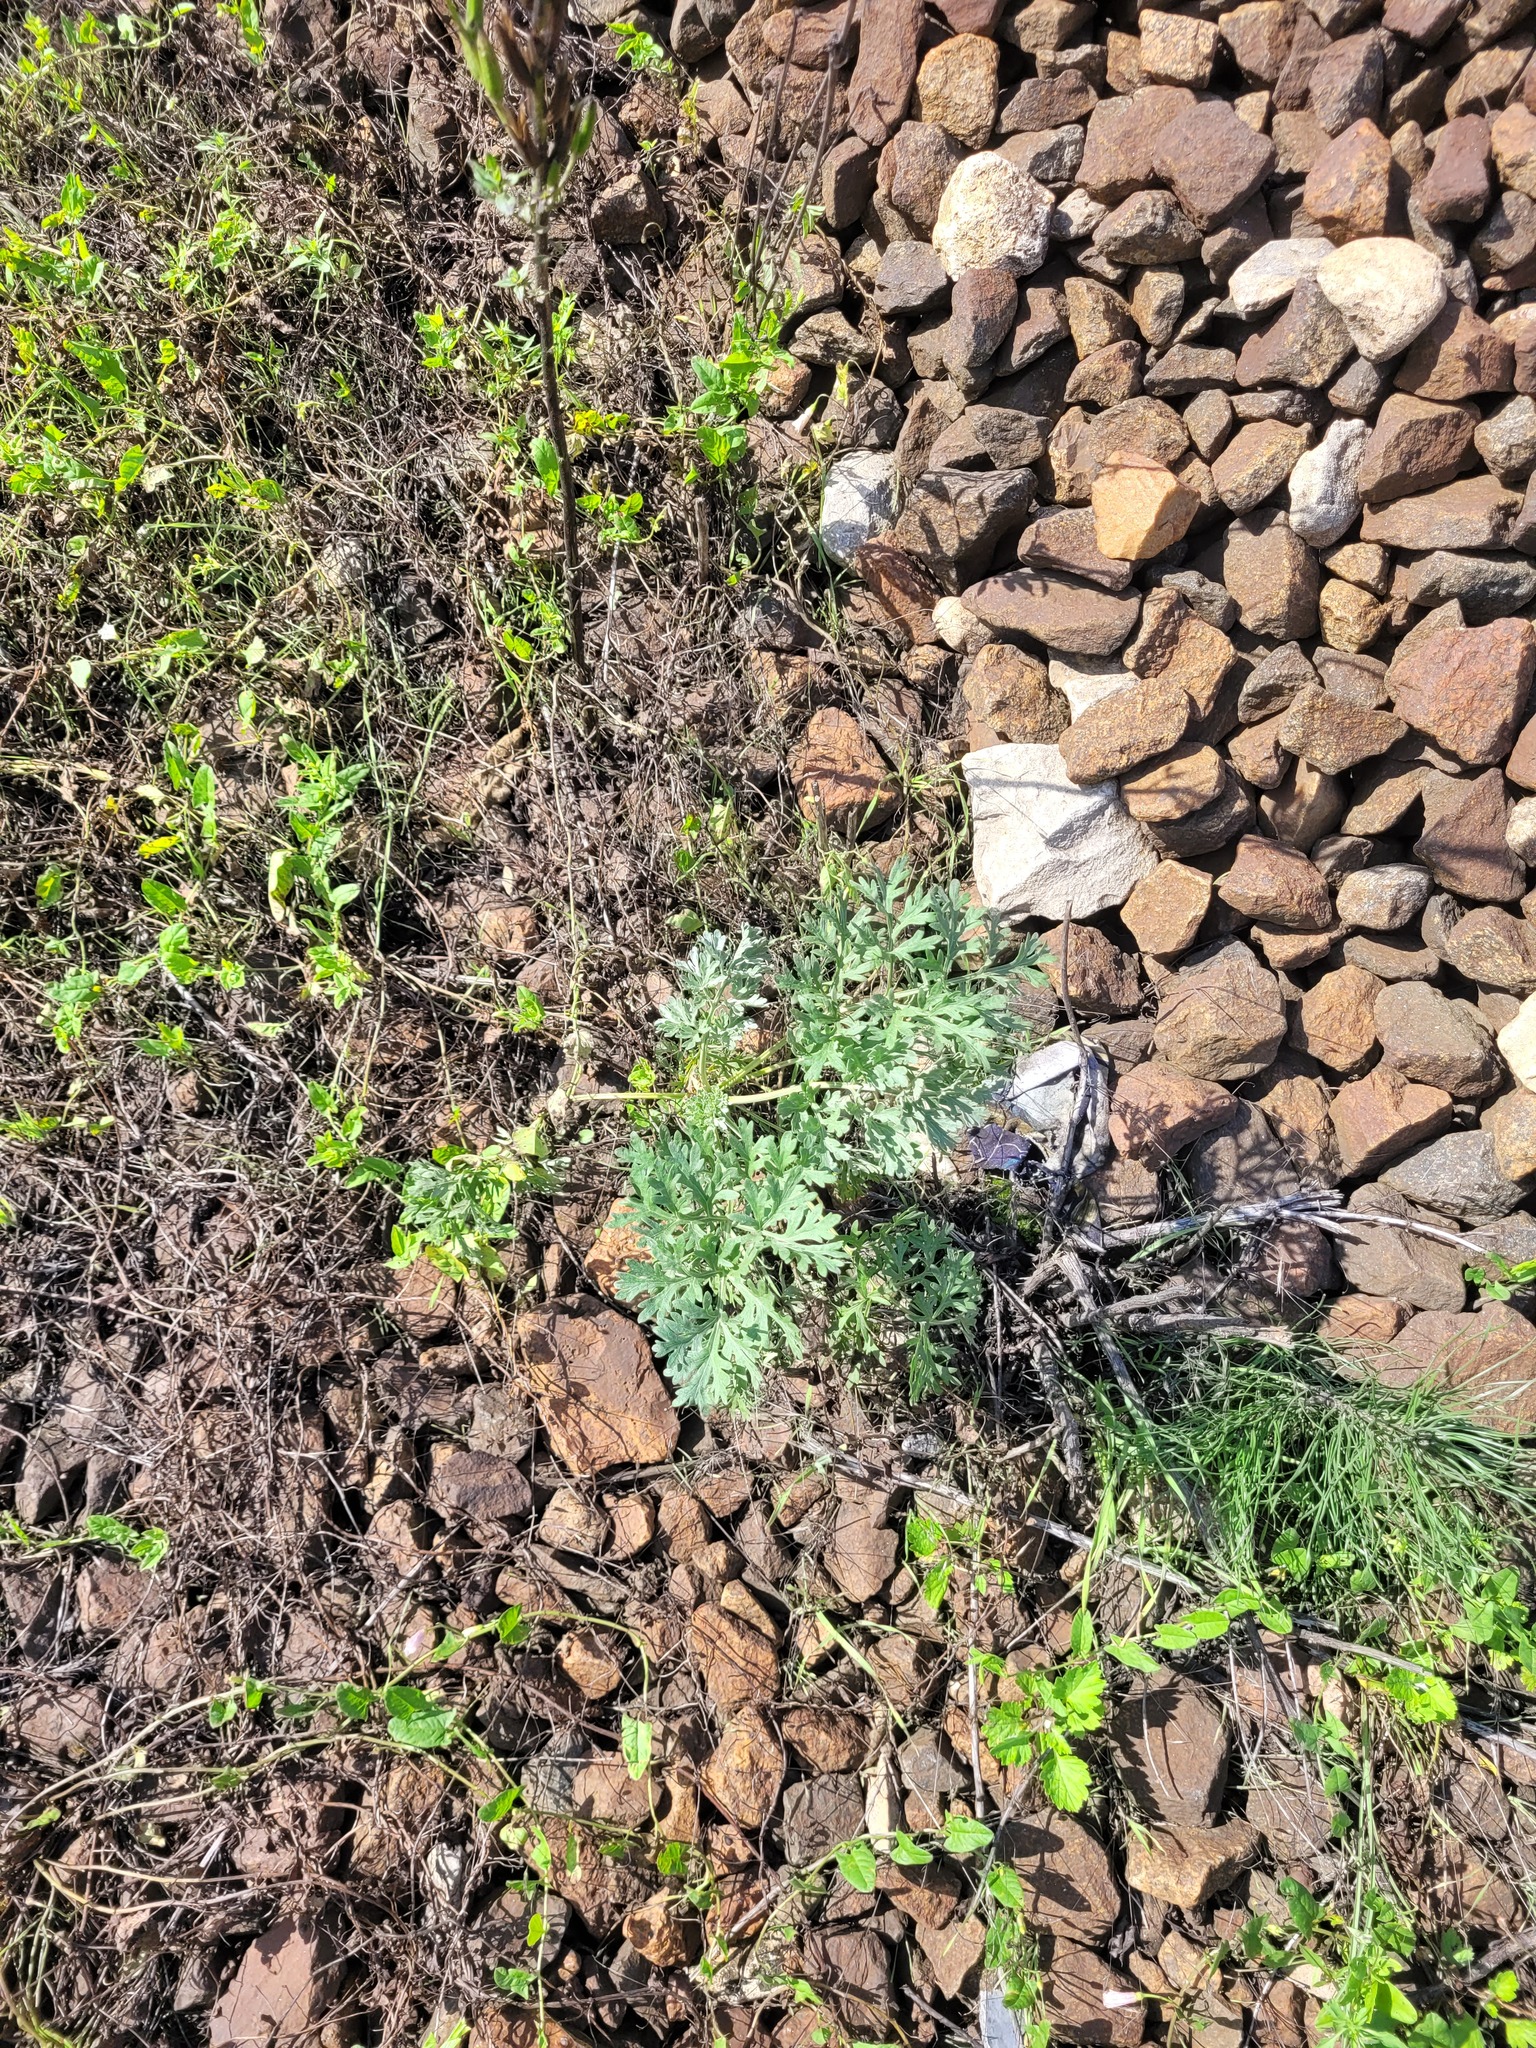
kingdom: Plantae
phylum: Tracheophyta
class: Magnoliopsida
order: Asterales
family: Asteraceae
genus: Artemisia
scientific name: Artemisia absinthium
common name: Wormwood
